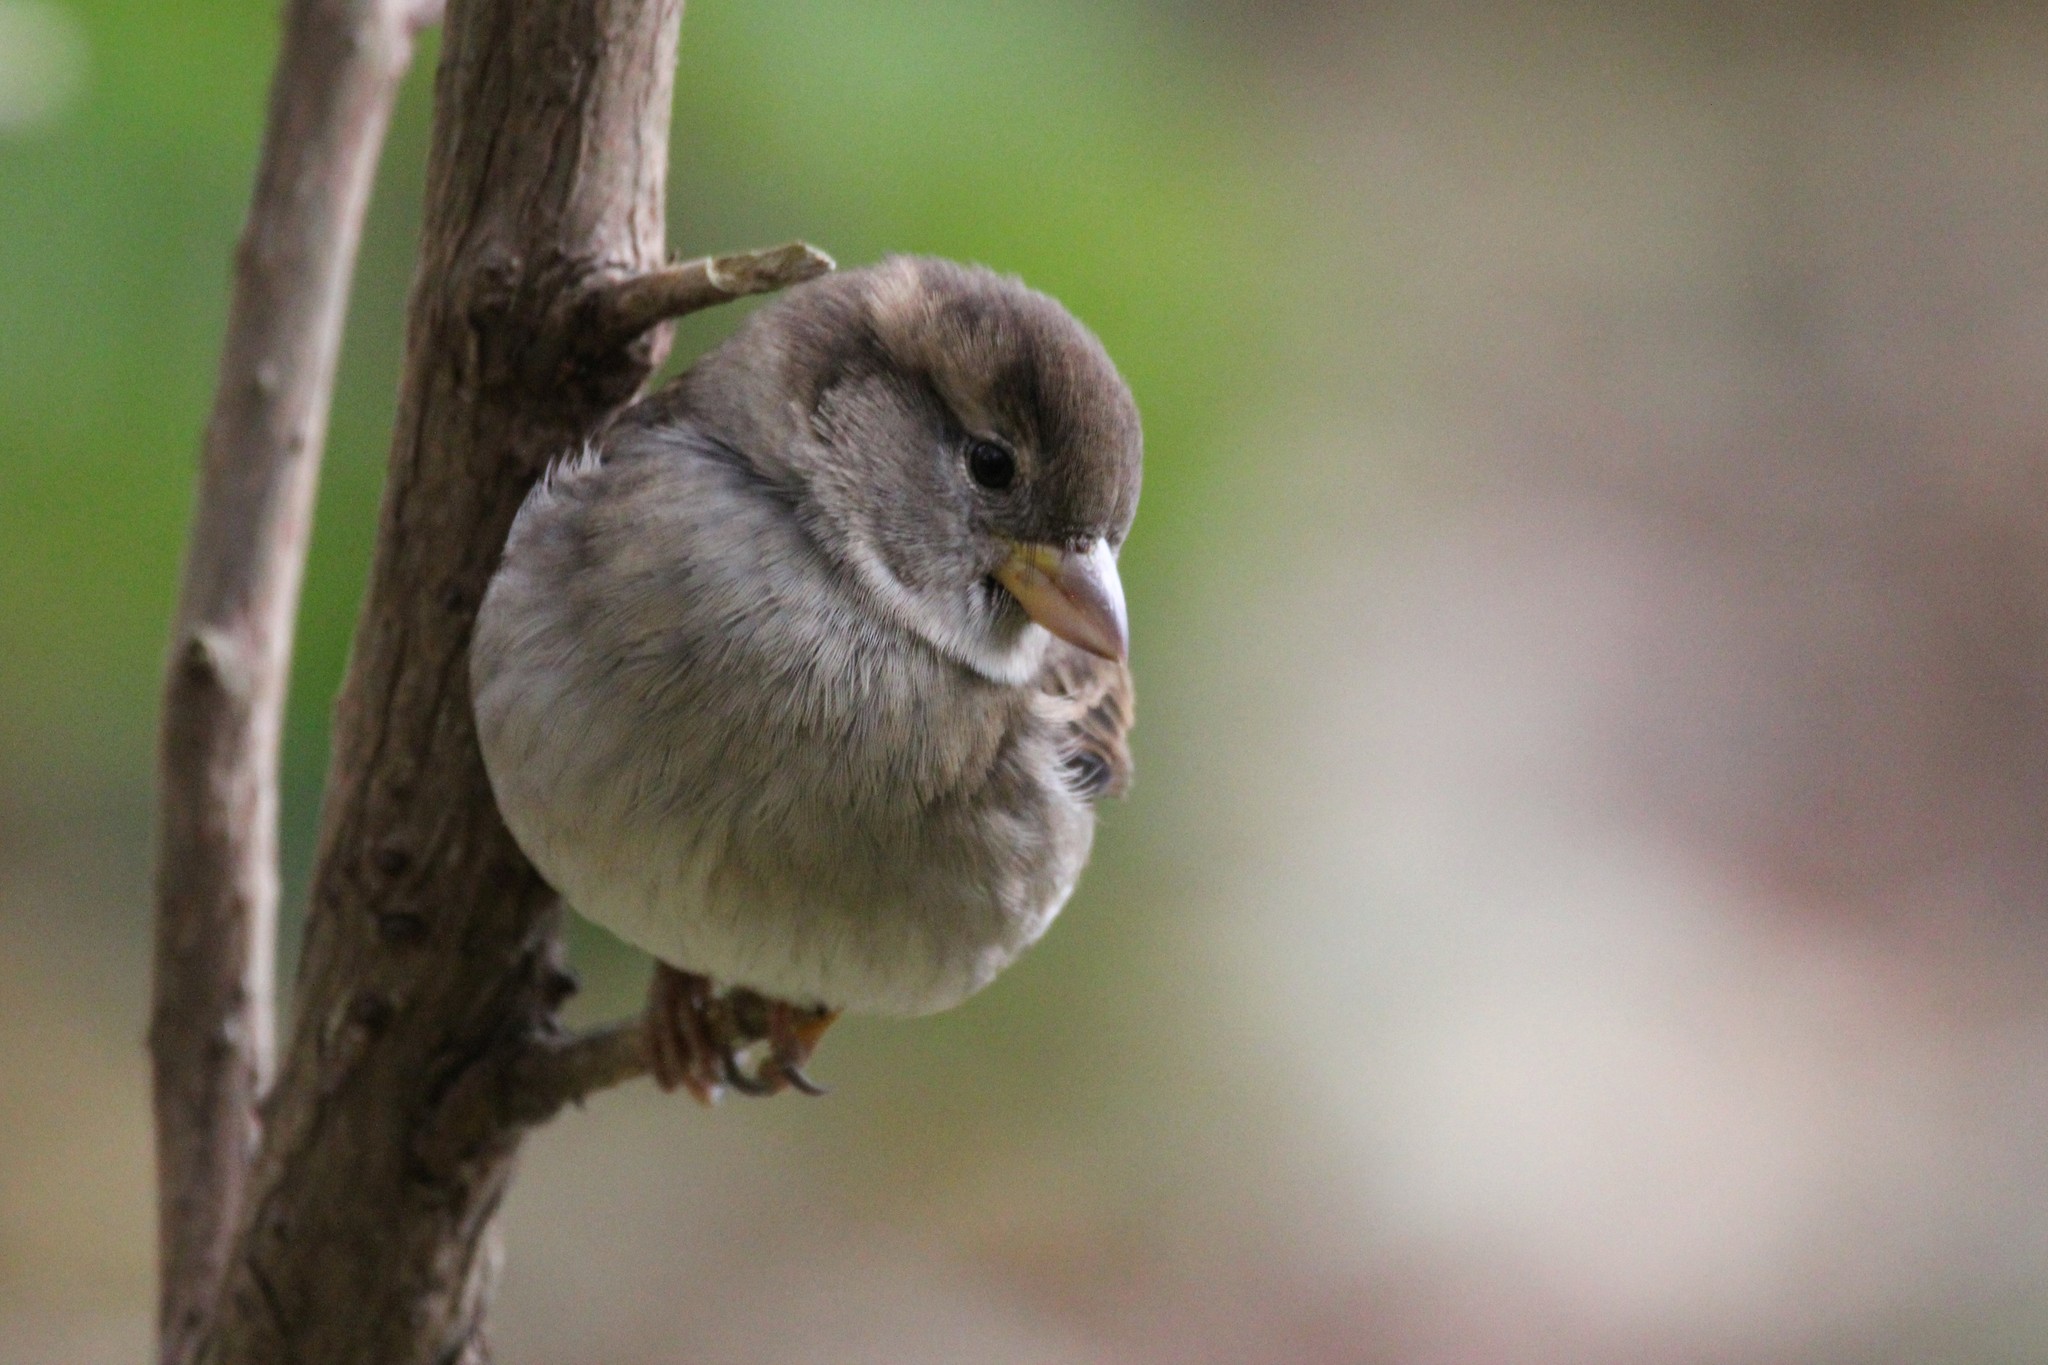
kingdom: Animalia
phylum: Chordata
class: Aves
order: Passeriformes
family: Passeridae
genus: Passer
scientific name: Passer domesticus
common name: House sparrow
